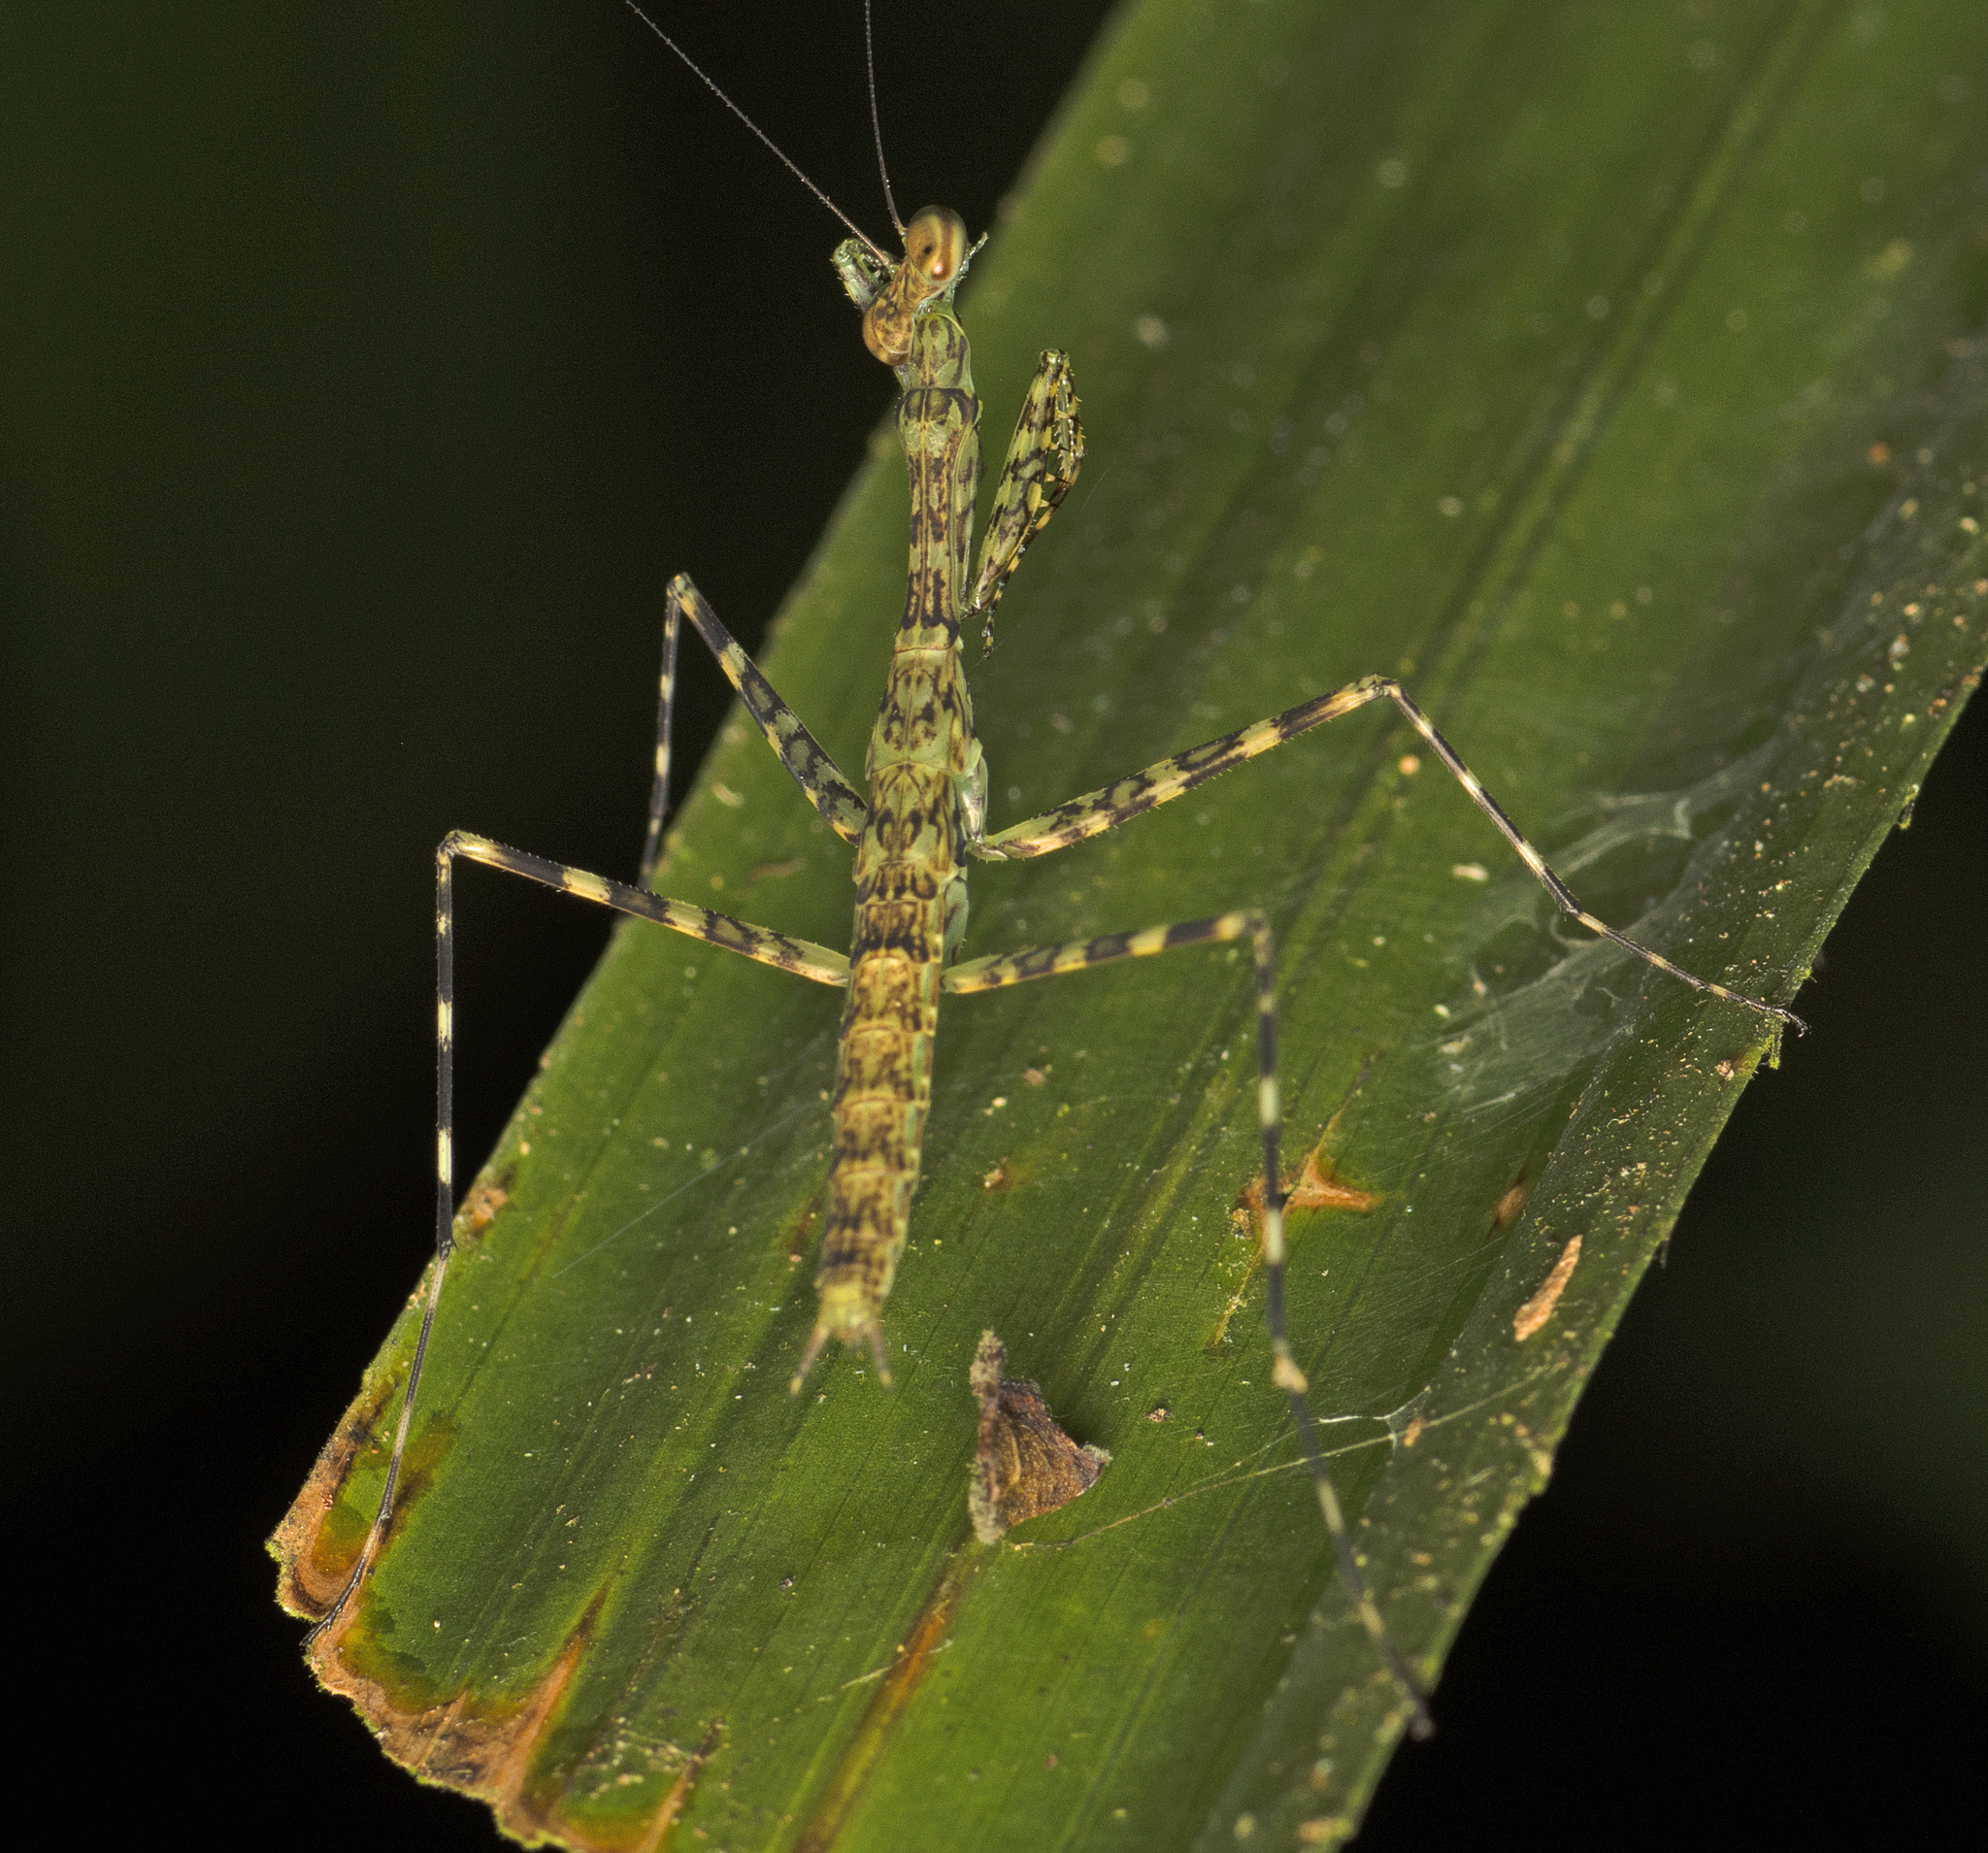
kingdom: Animalia
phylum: Arthropoda
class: Insecta
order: Mantodea
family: Nanomantidae
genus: Ciulfina
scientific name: Ciulfina rentzi
